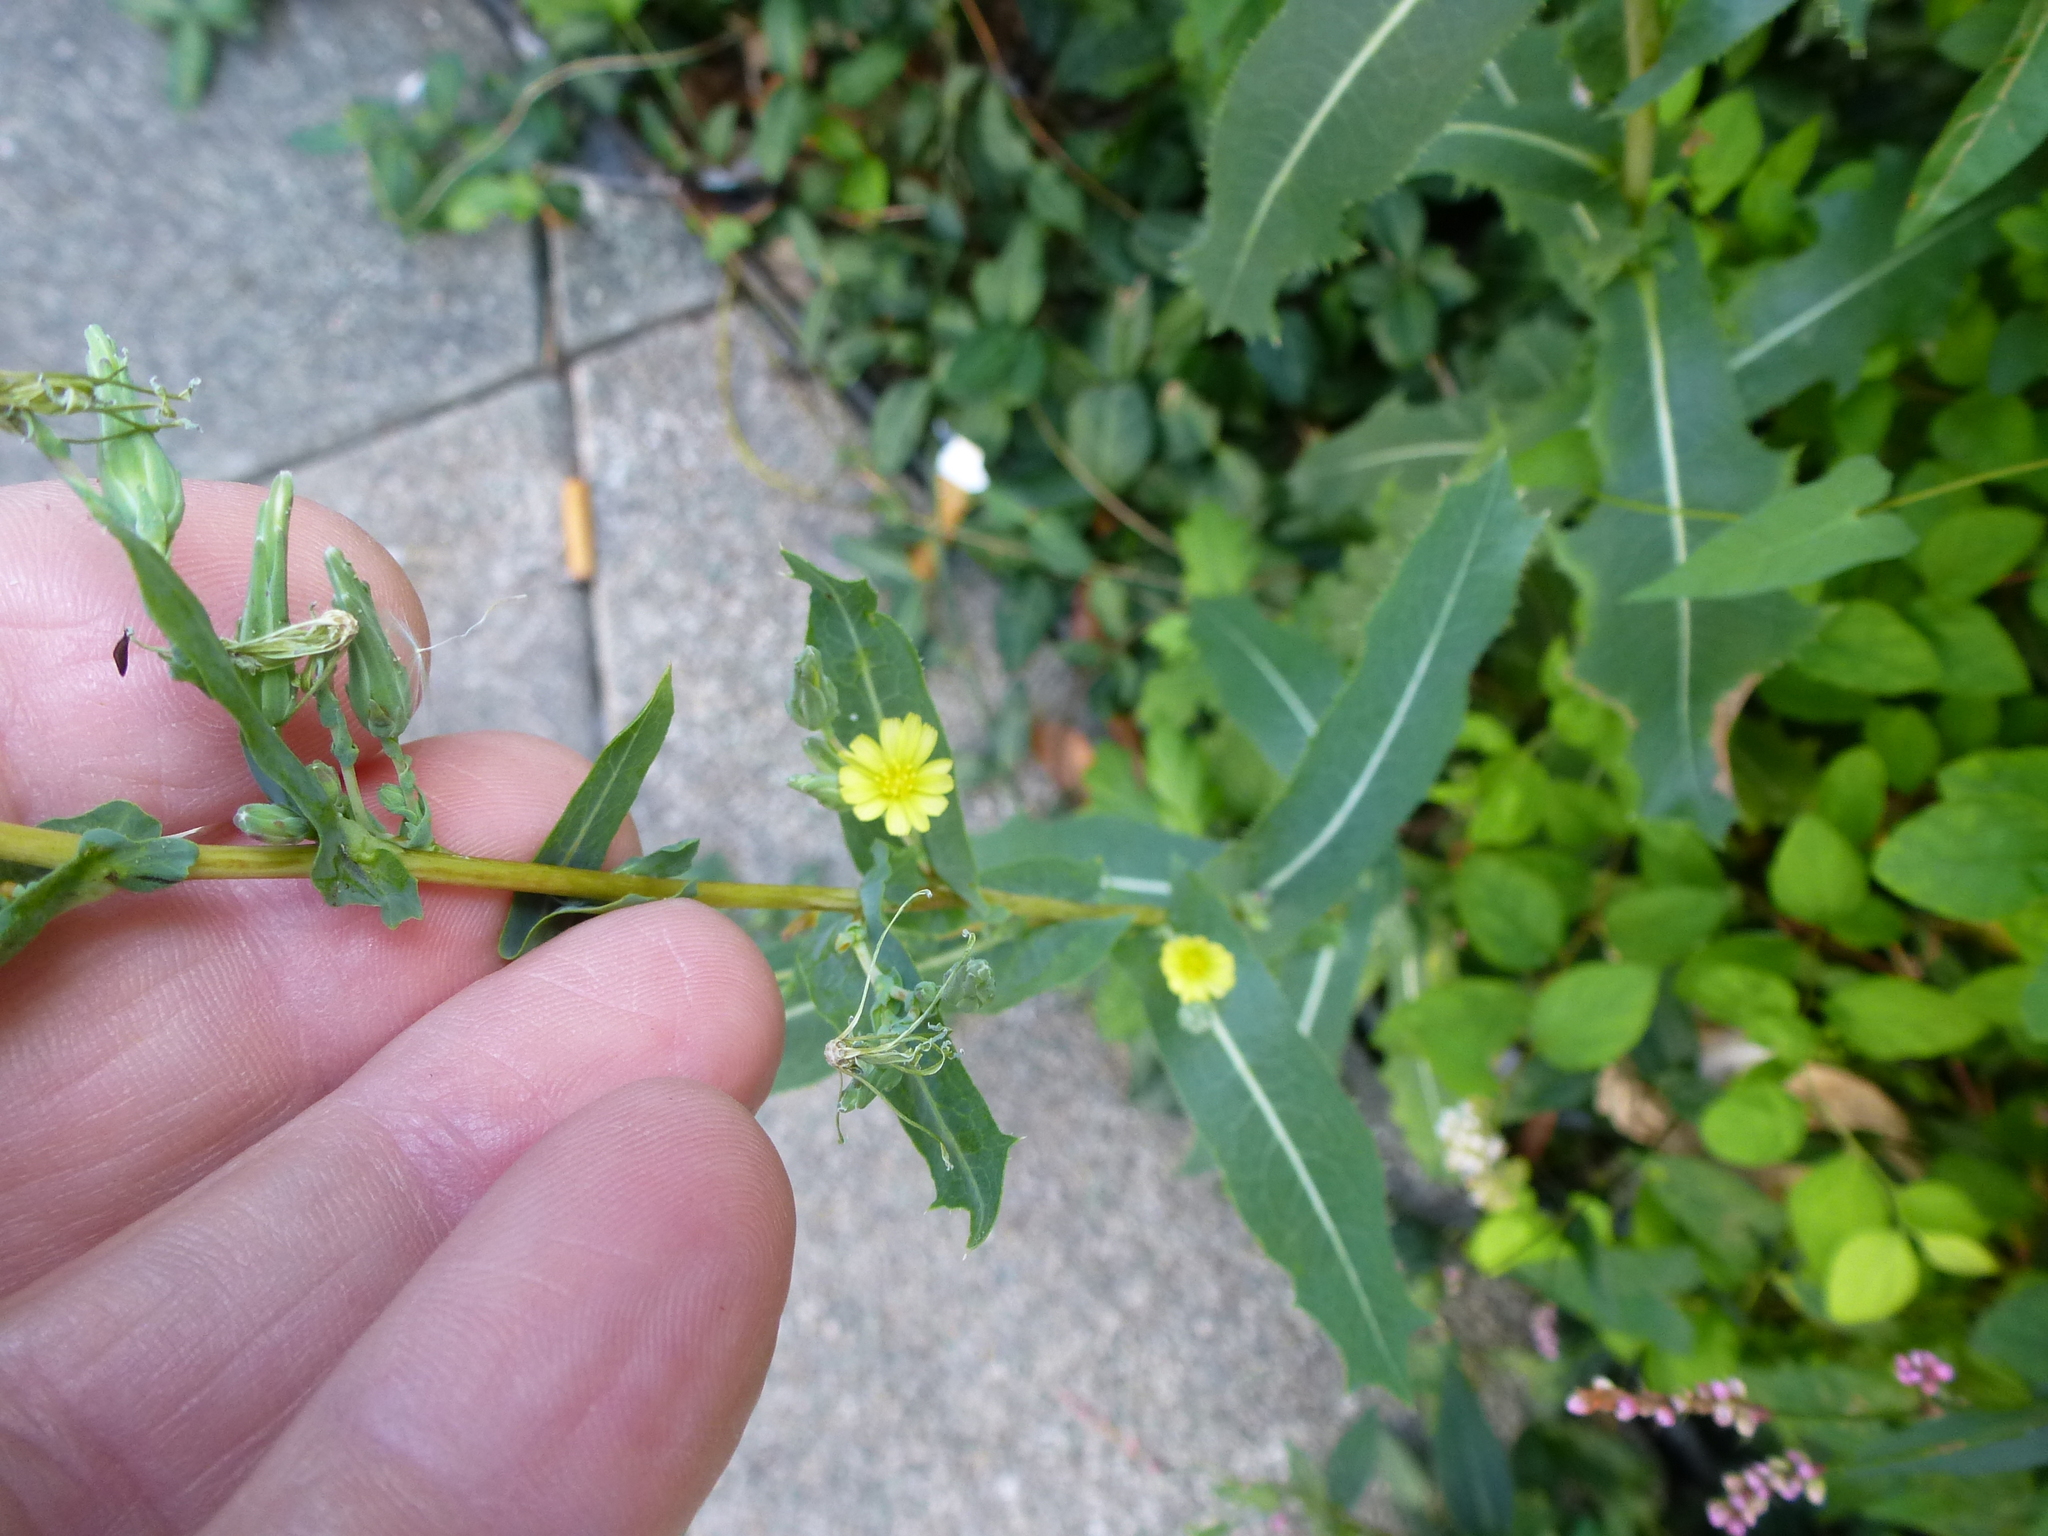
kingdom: Plantae
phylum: Tracheophyta
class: Magnoliopsida
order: Asterales
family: Asteraceae
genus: Lactuca
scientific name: Lactuca serriola
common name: Prickly lettuce
